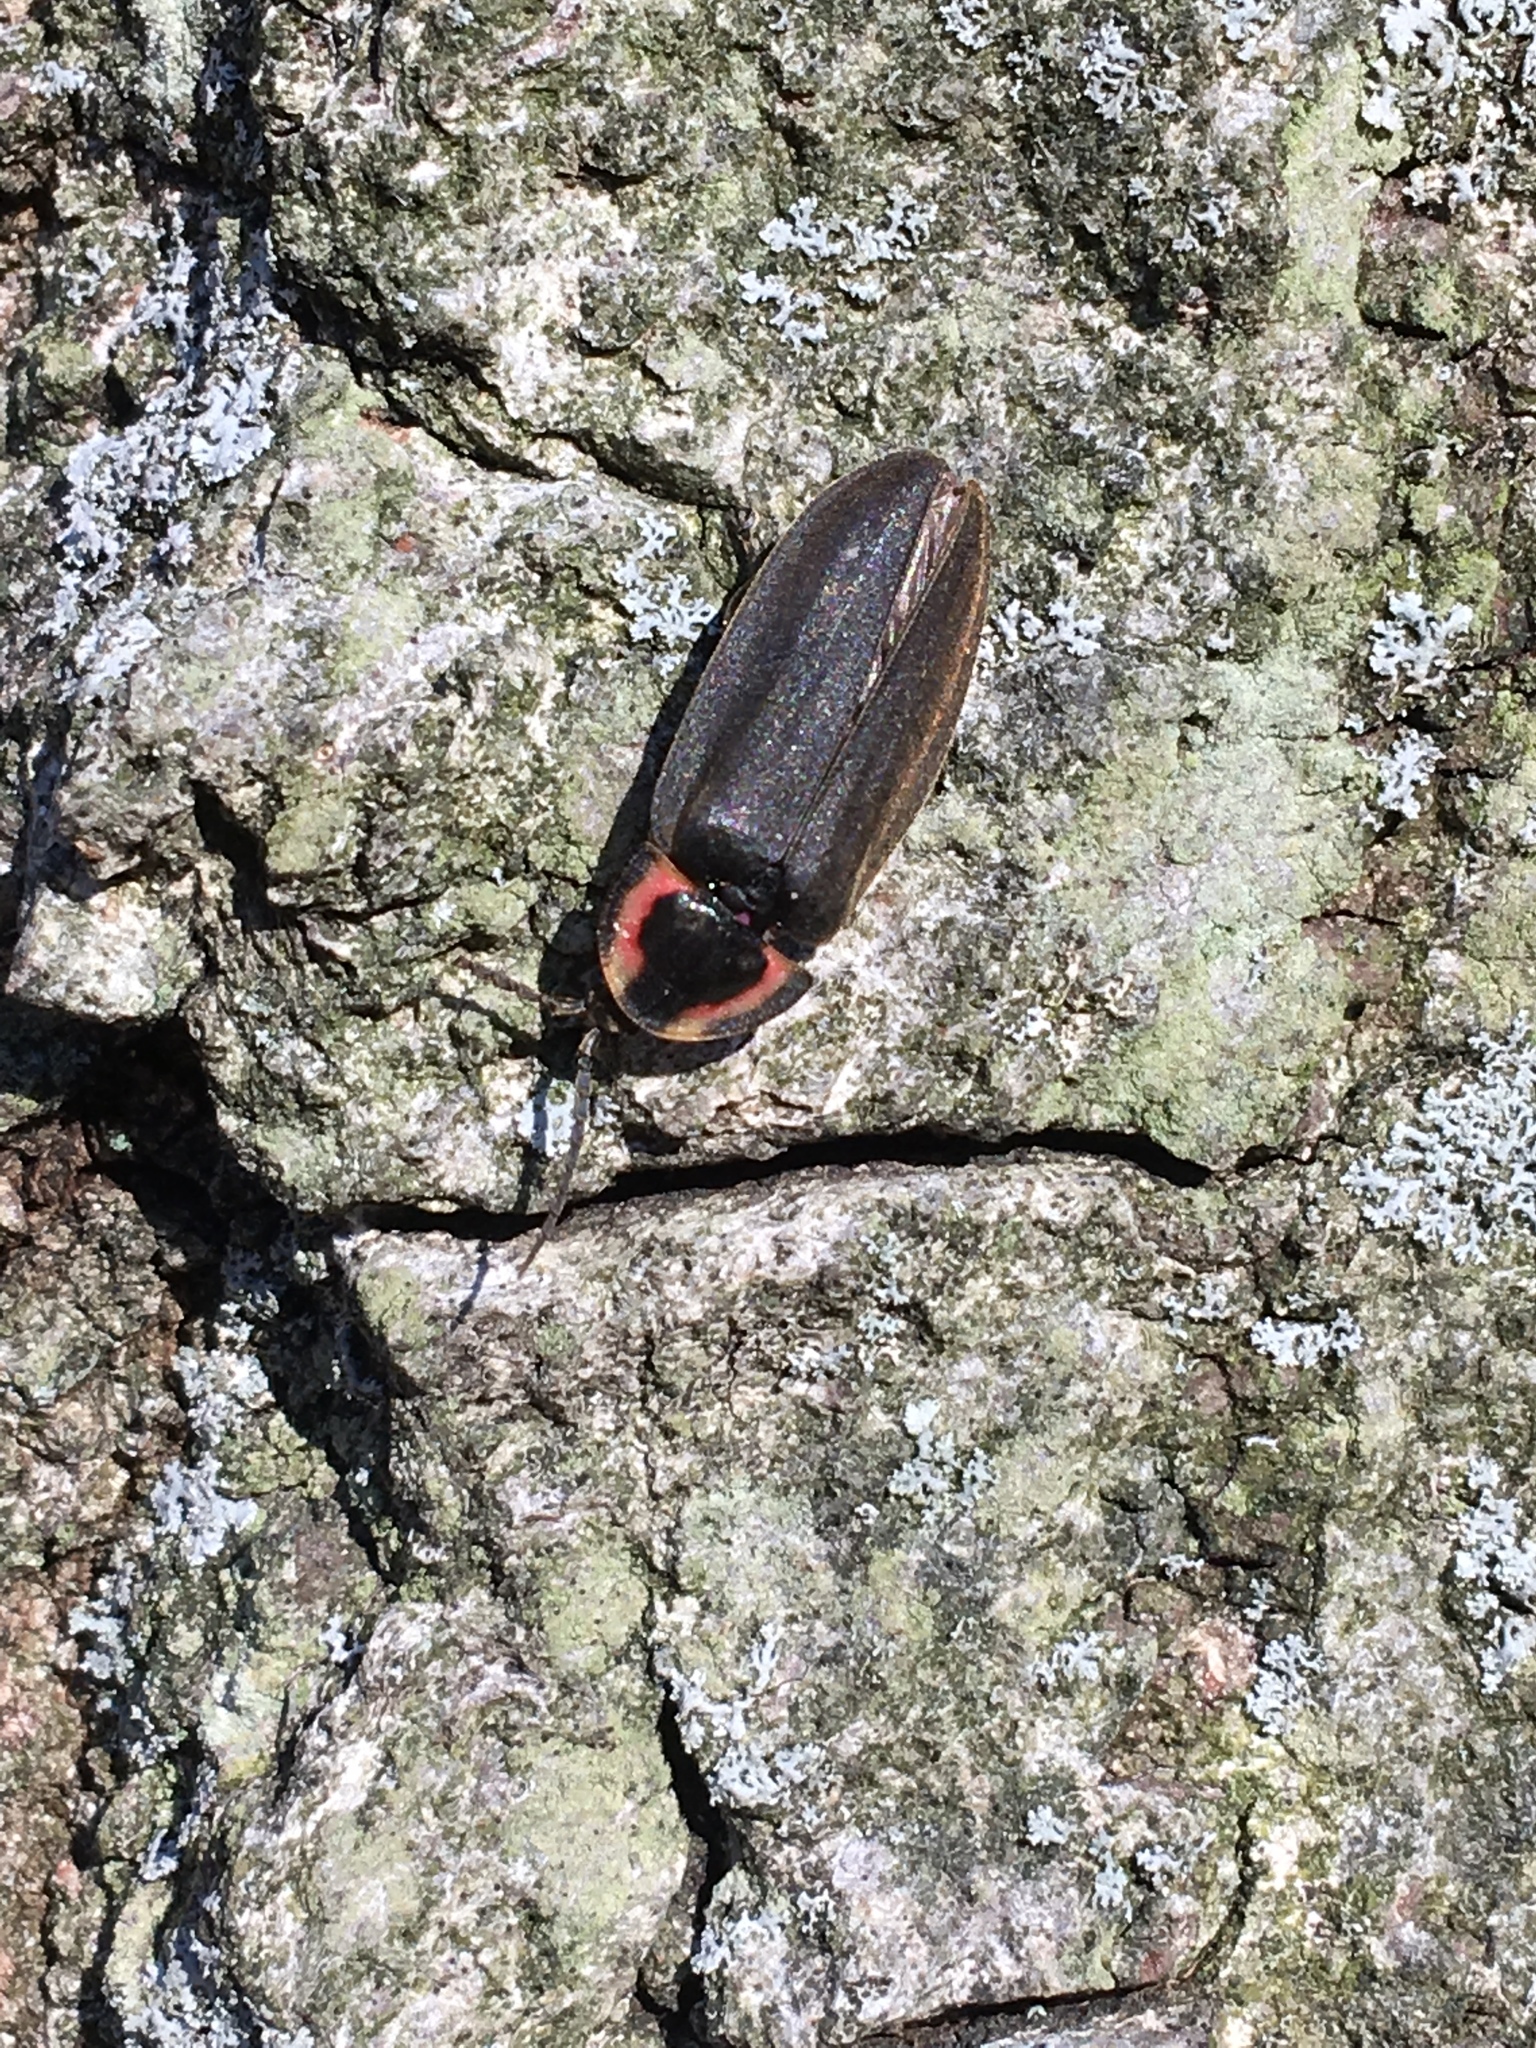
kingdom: Animalia
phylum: Arthropoda
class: Insecta
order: Coleoptera
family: Lampyridae
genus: Photinus
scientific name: Photinus corrusca
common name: Winter firefly
